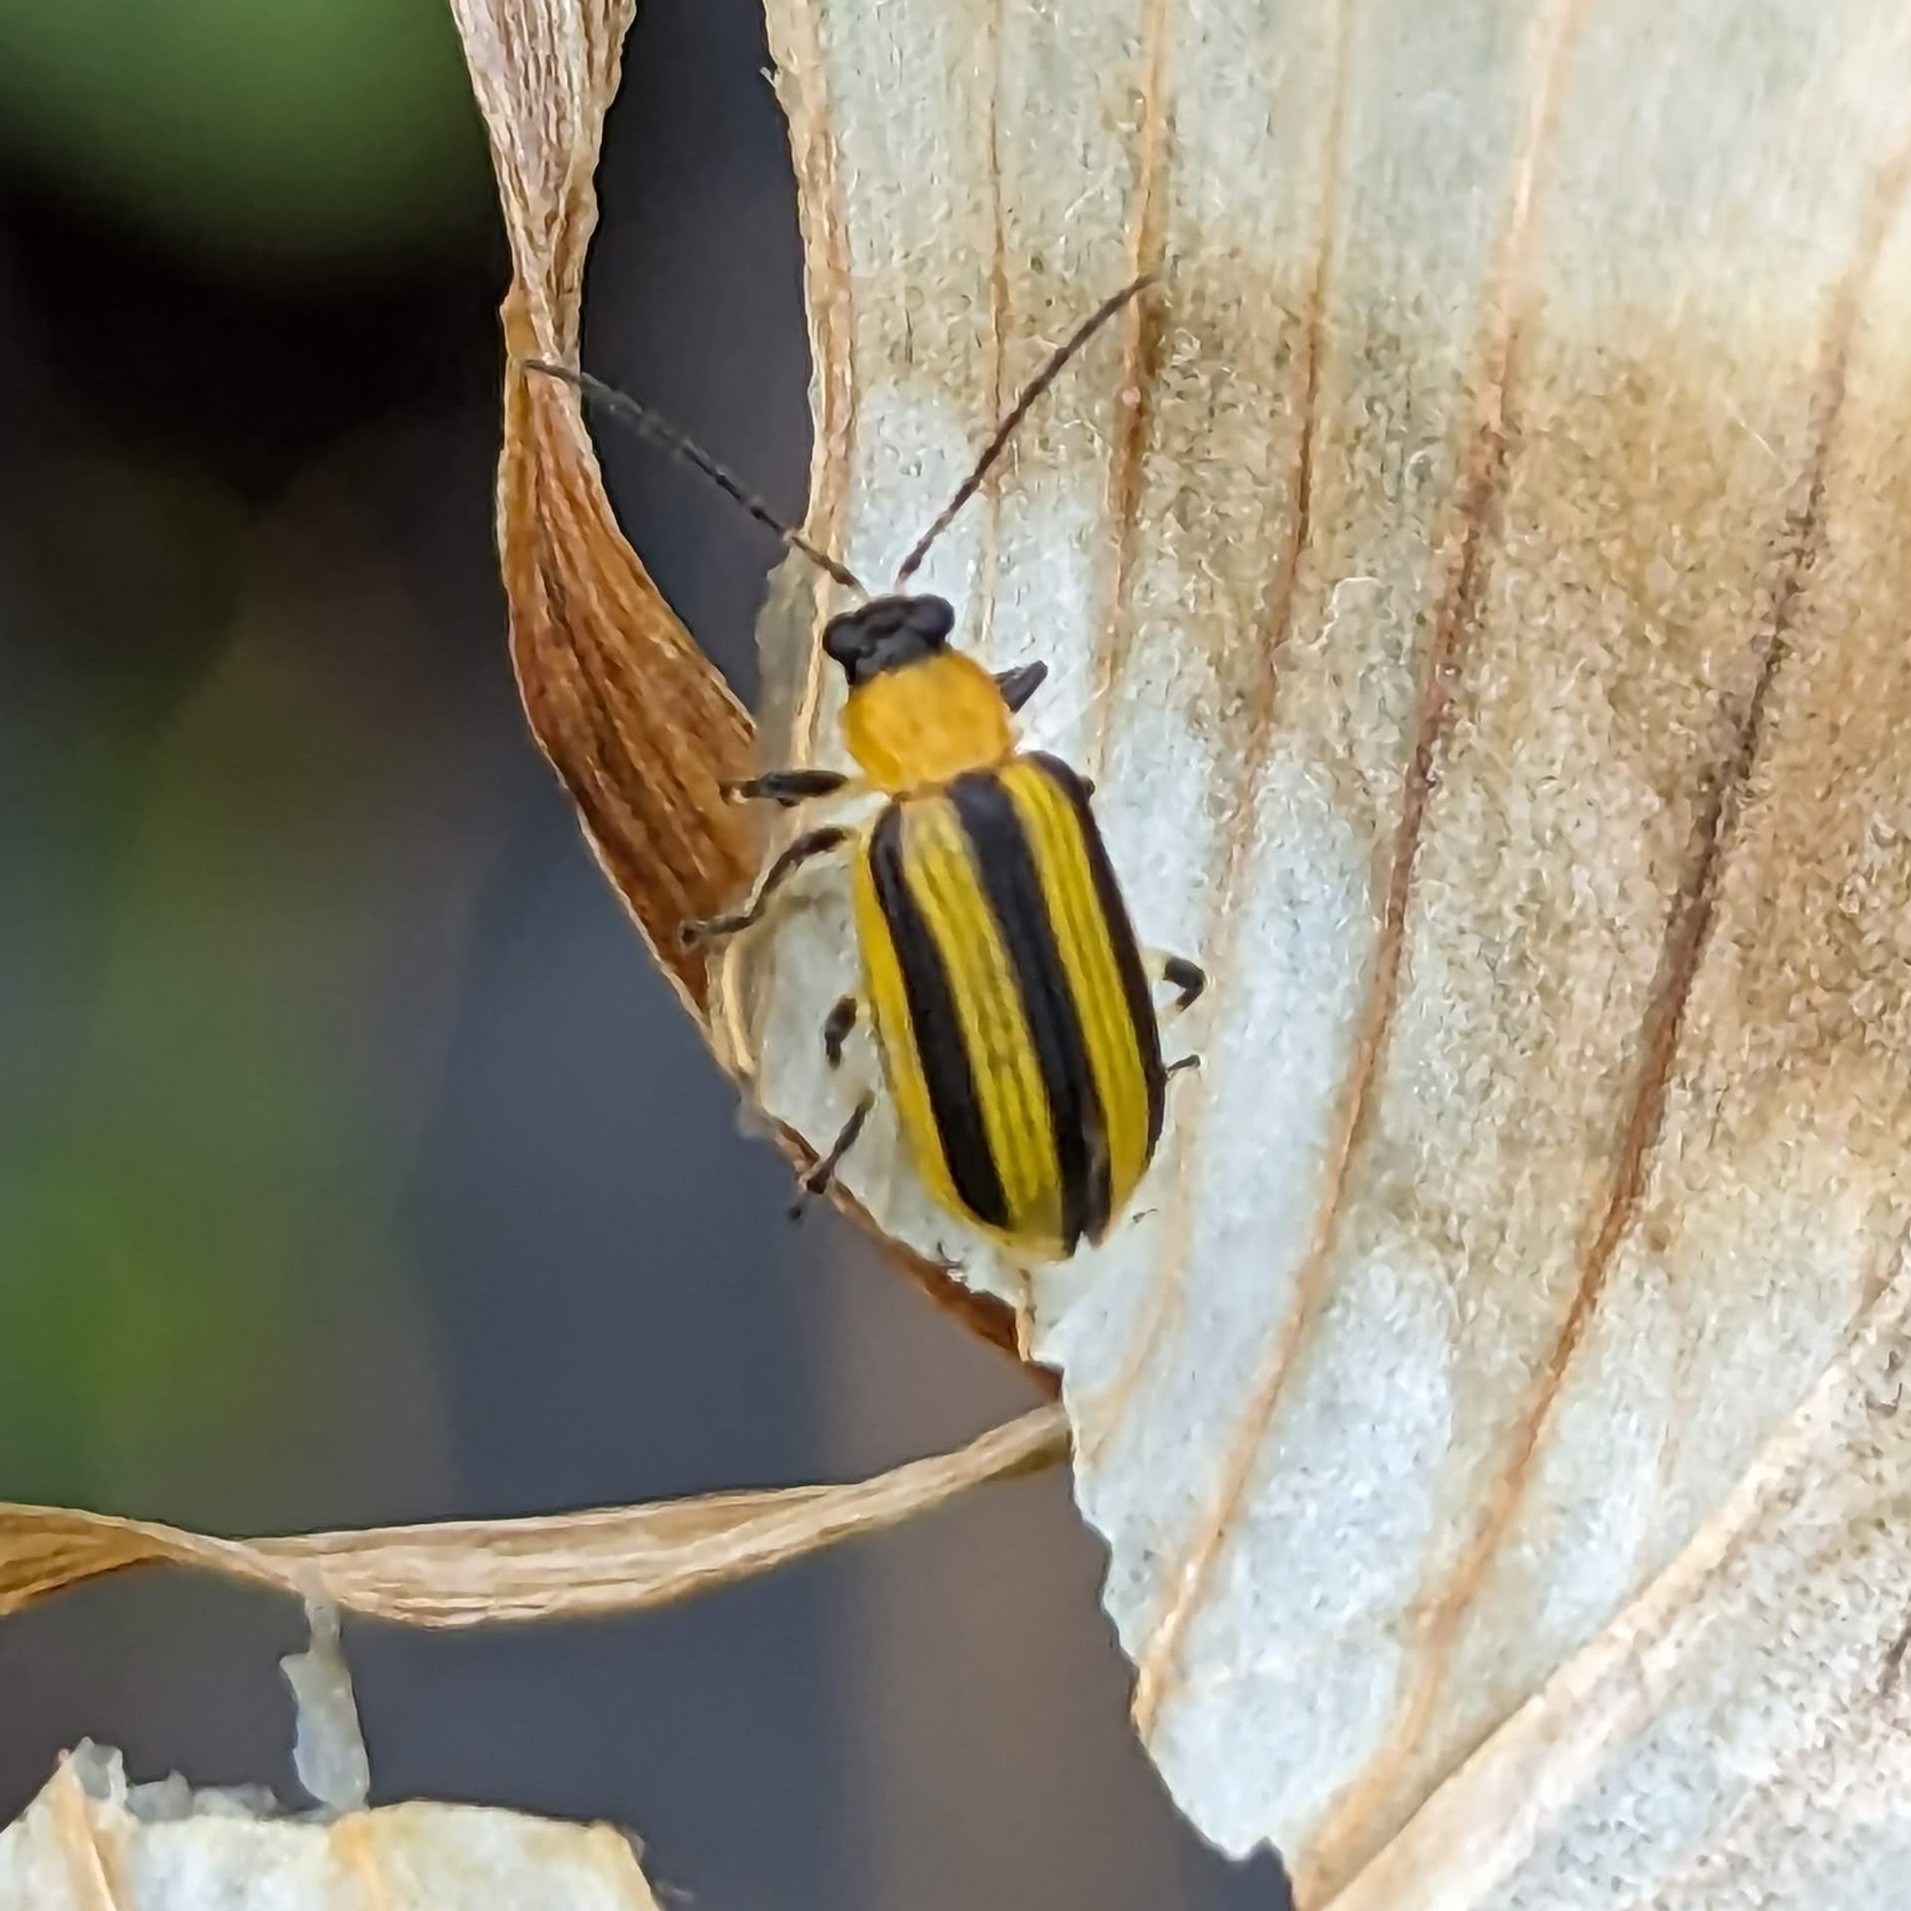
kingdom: Animalia
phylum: Arthropoda
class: Insecta
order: Coleoptera
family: Chrysomelidae
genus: Acalymma
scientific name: Acalymma vittatum
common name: Striped cucumber beetle
